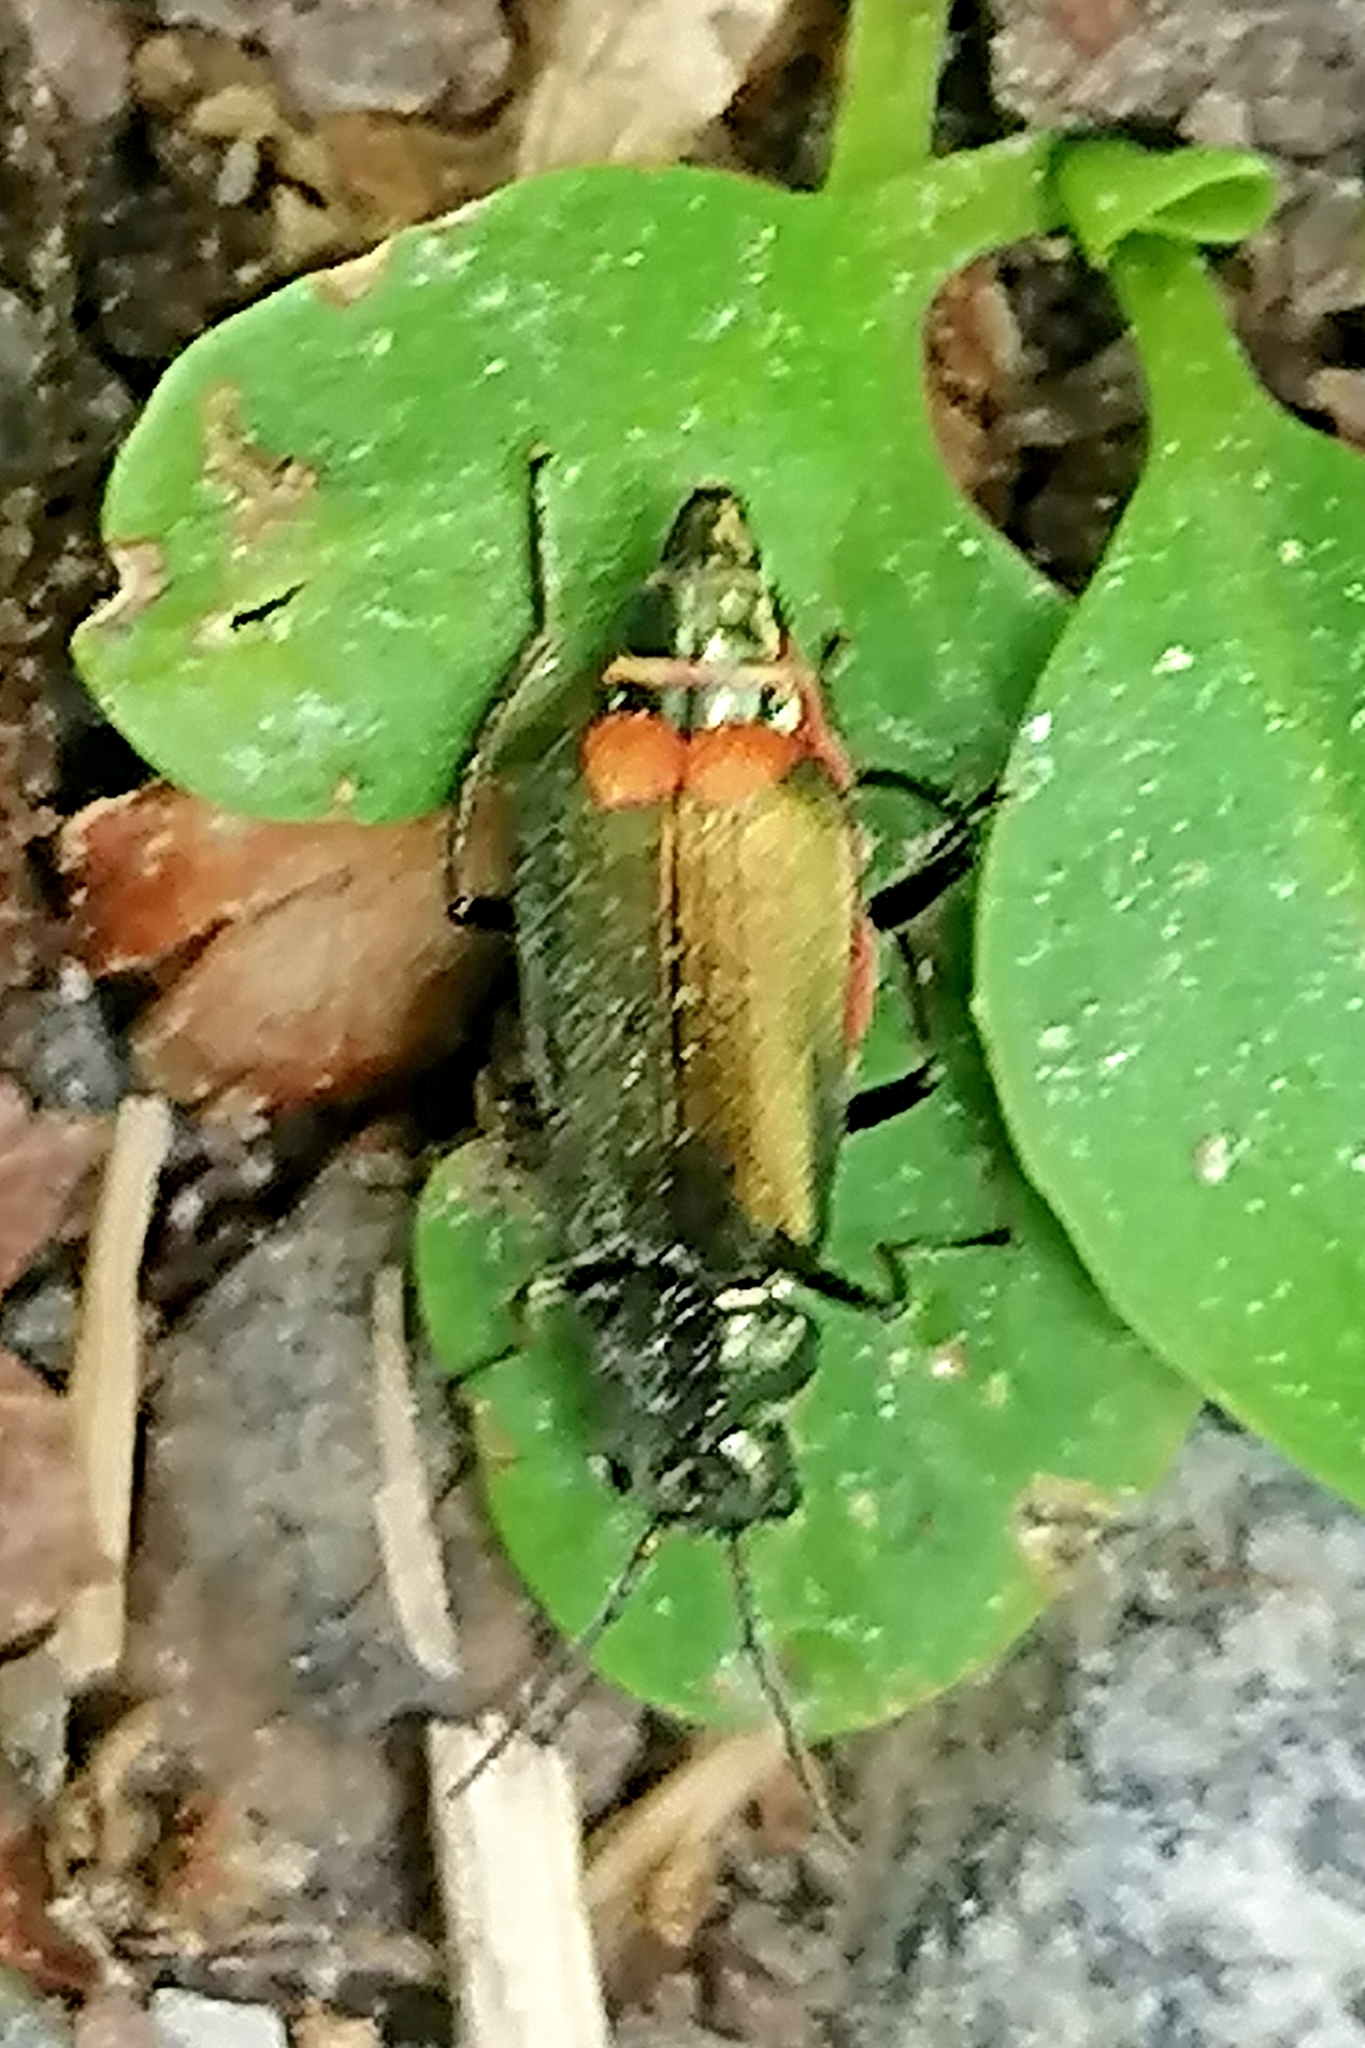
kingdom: Animalia
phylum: Arthropoda
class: Insecta
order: Coleoptera
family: Melyridae
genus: Malachius
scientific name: Malachius bipustulatus
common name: Malachite beetle
